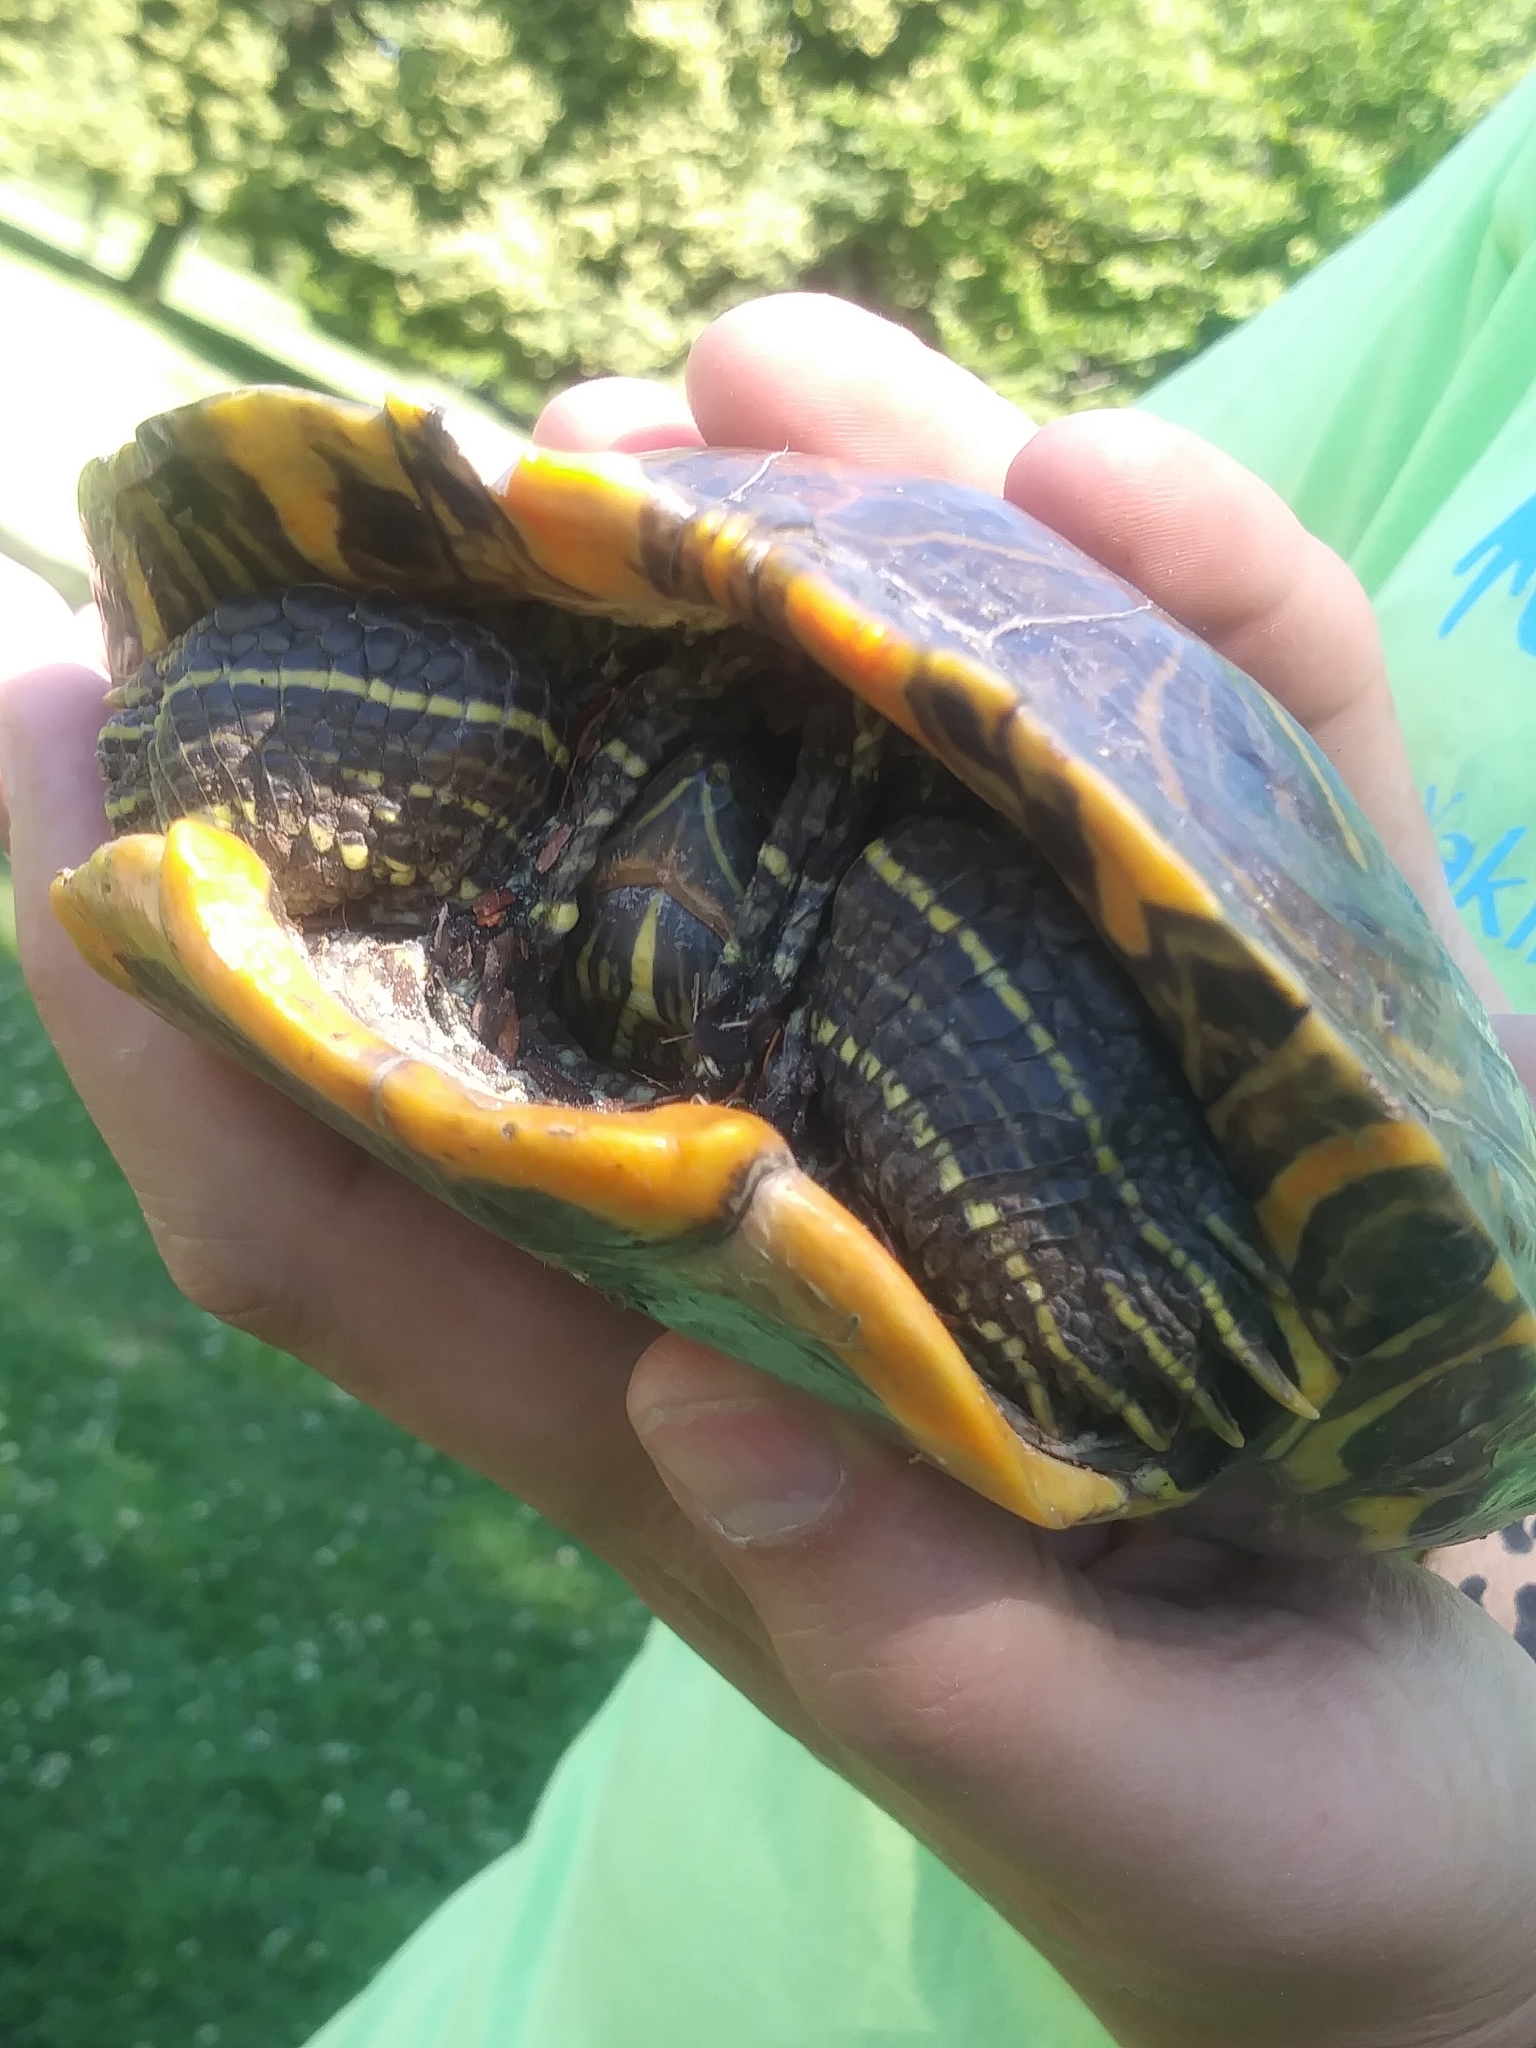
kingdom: Animalia
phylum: Chordata
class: Testudines
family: Emydidae
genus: Trachemys
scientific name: Trachemys scripta
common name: Slider
